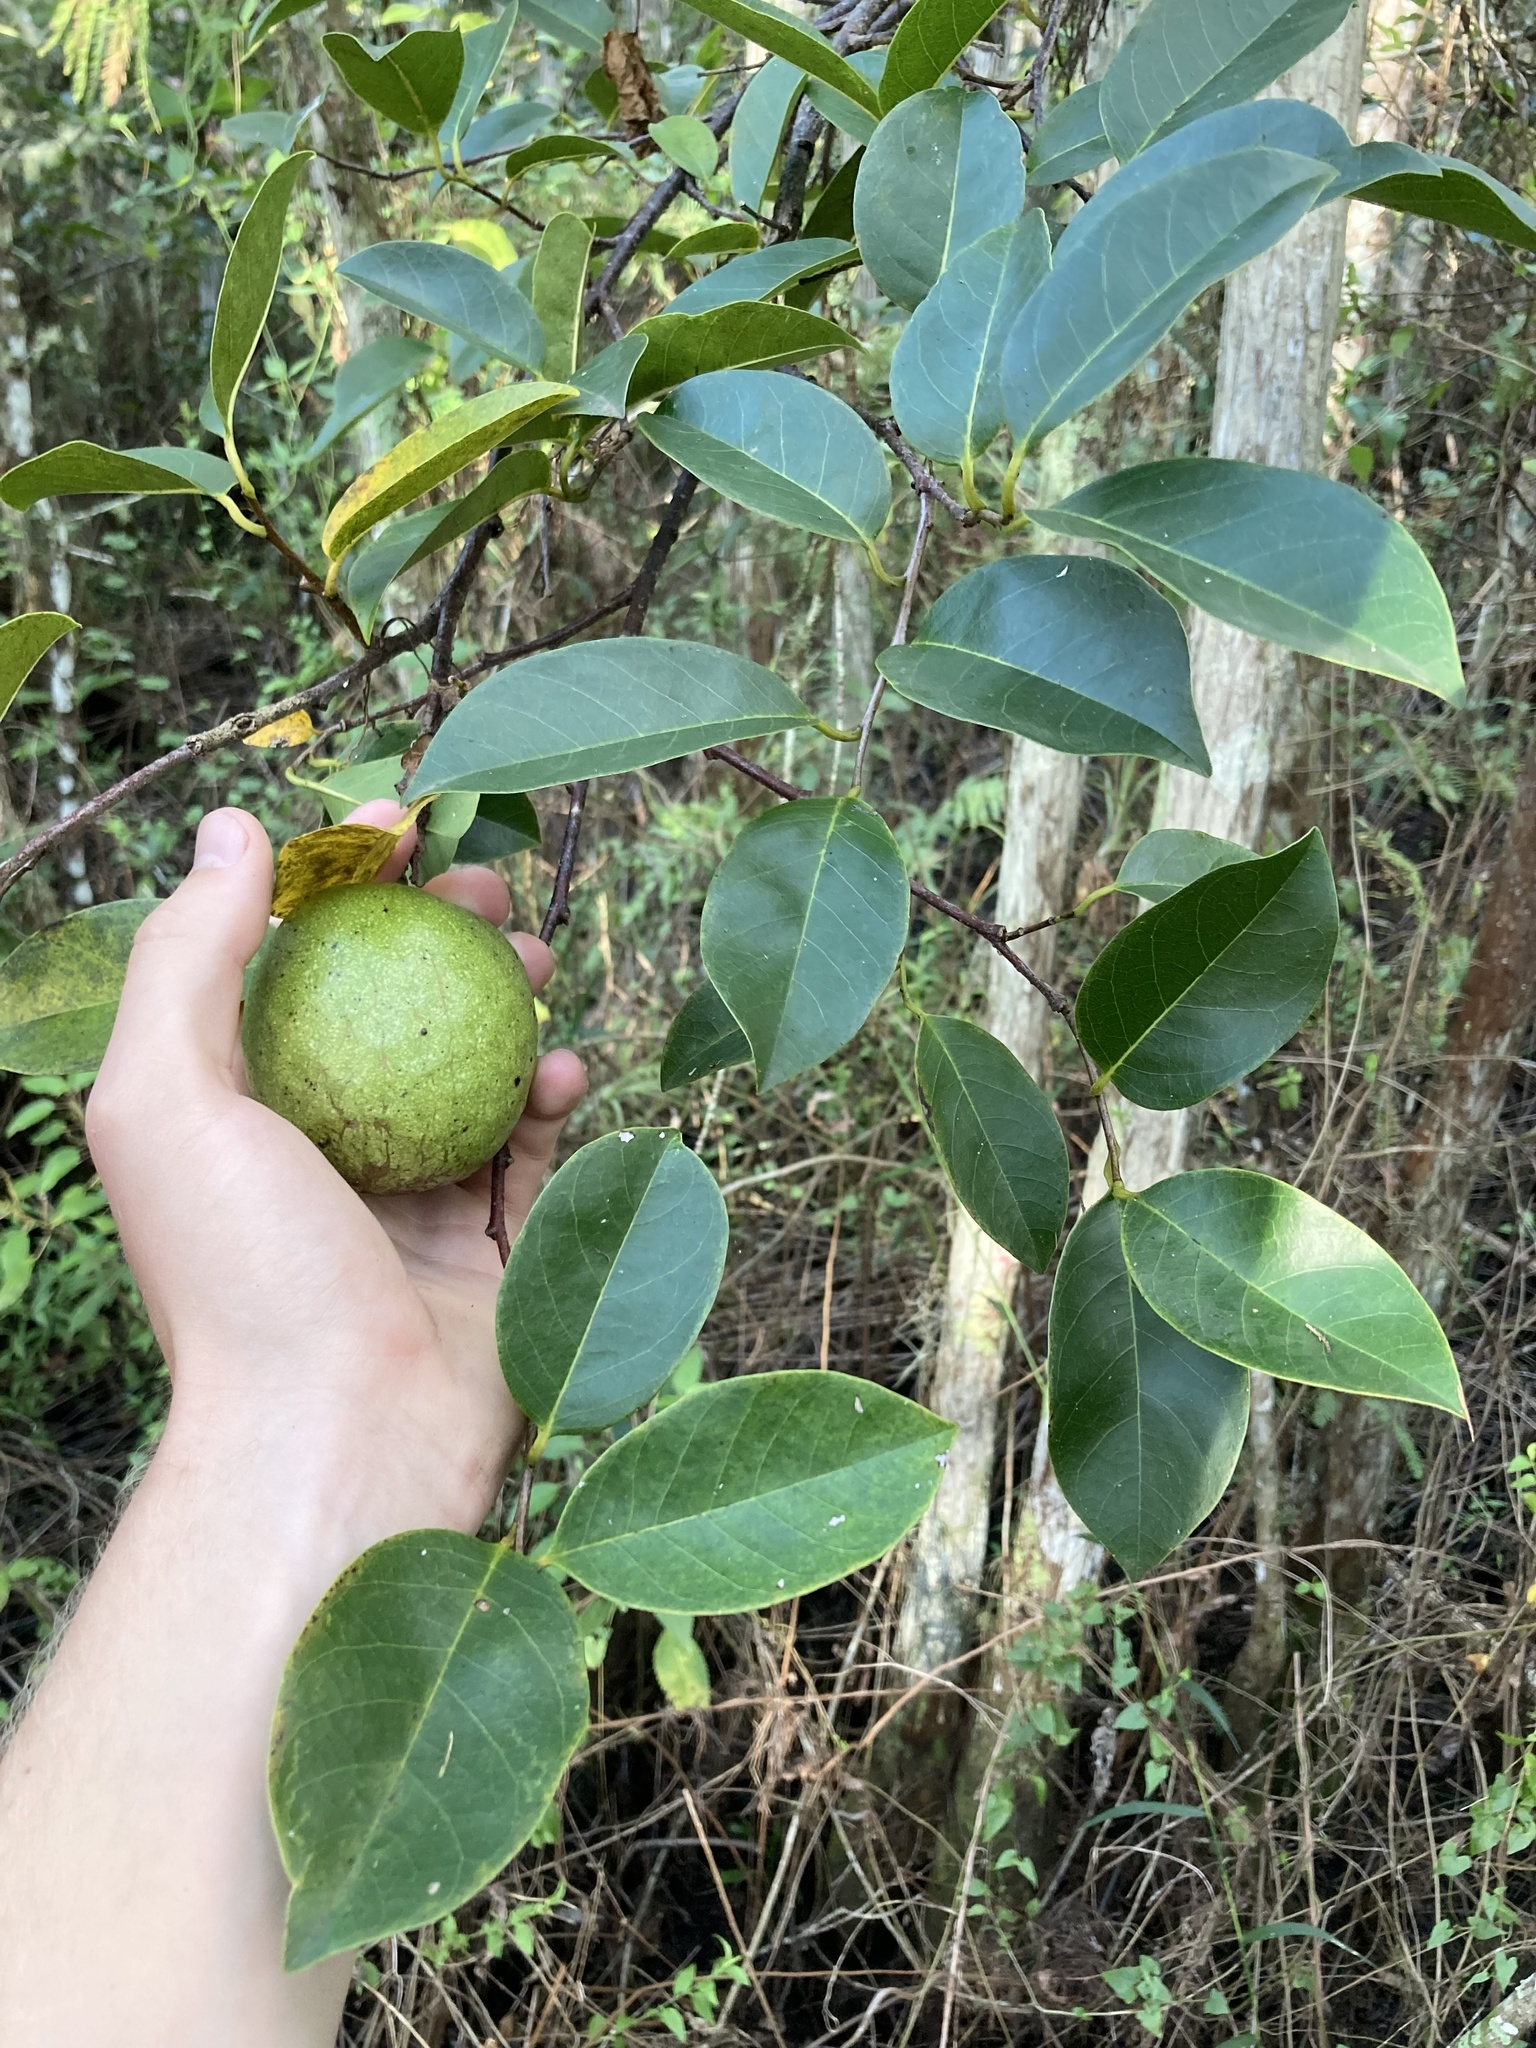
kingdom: Plantae
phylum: Tracheophyta
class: Magnoliopsida
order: Magnoliales
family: Annonaceae
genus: Annona
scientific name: Annona glabra
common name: Monkey apple
